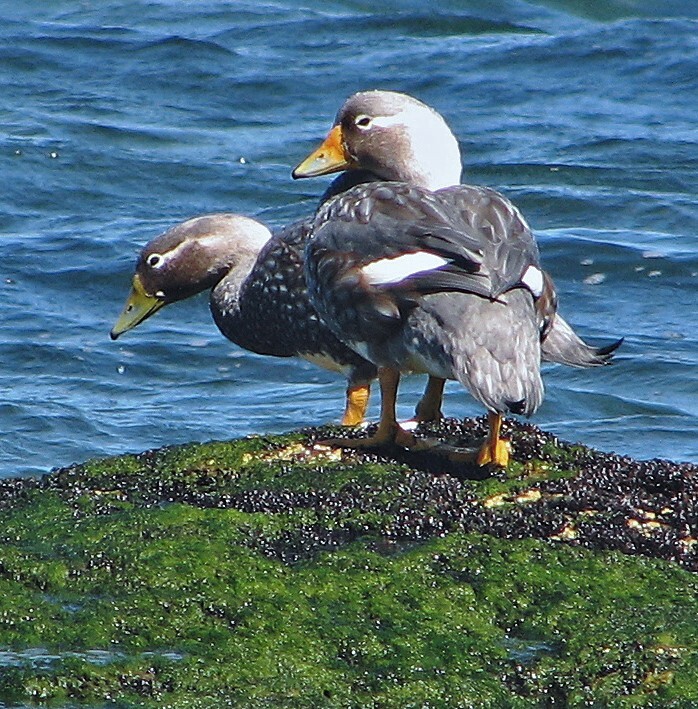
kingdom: Animalia
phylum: Chordata
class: Aves
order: Anseriformes
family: Anatidae
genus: Tachyeres
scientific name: Tachyeres leucocephalus
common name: Chubut steamer duck
